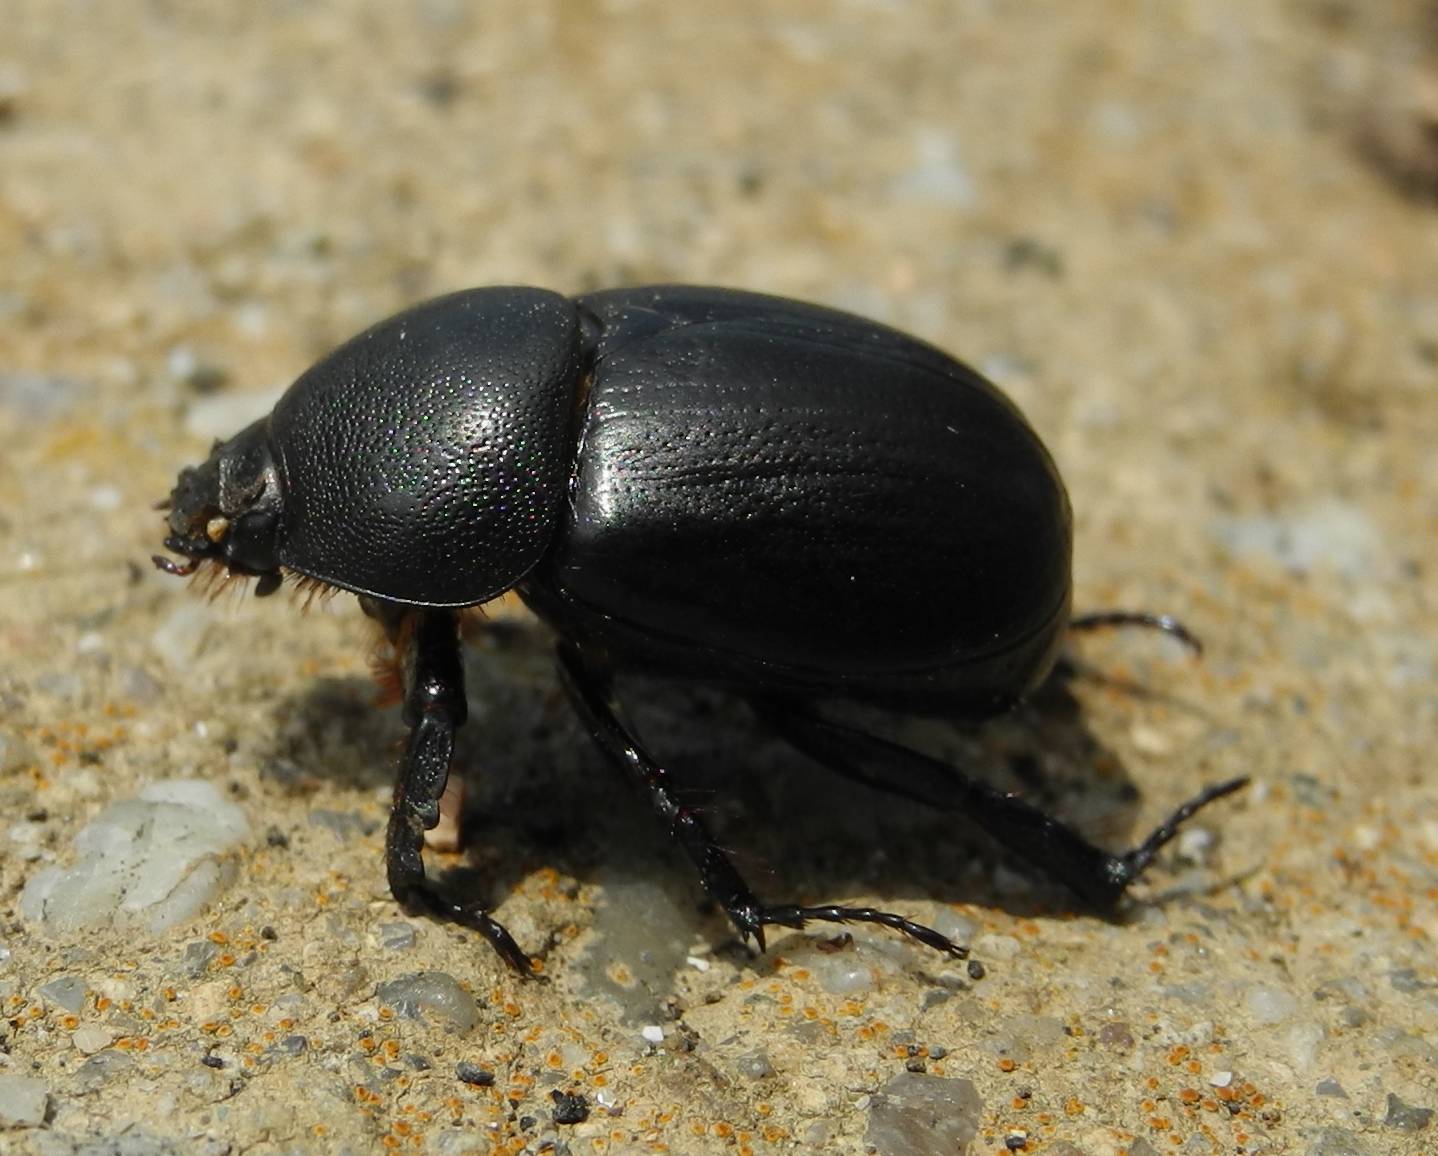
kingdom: Animalia
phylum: Arthropoda
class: Insecta
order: Coleoptera
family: Scarabaeidae
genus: Pentodon
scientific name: Pentodon idiota
